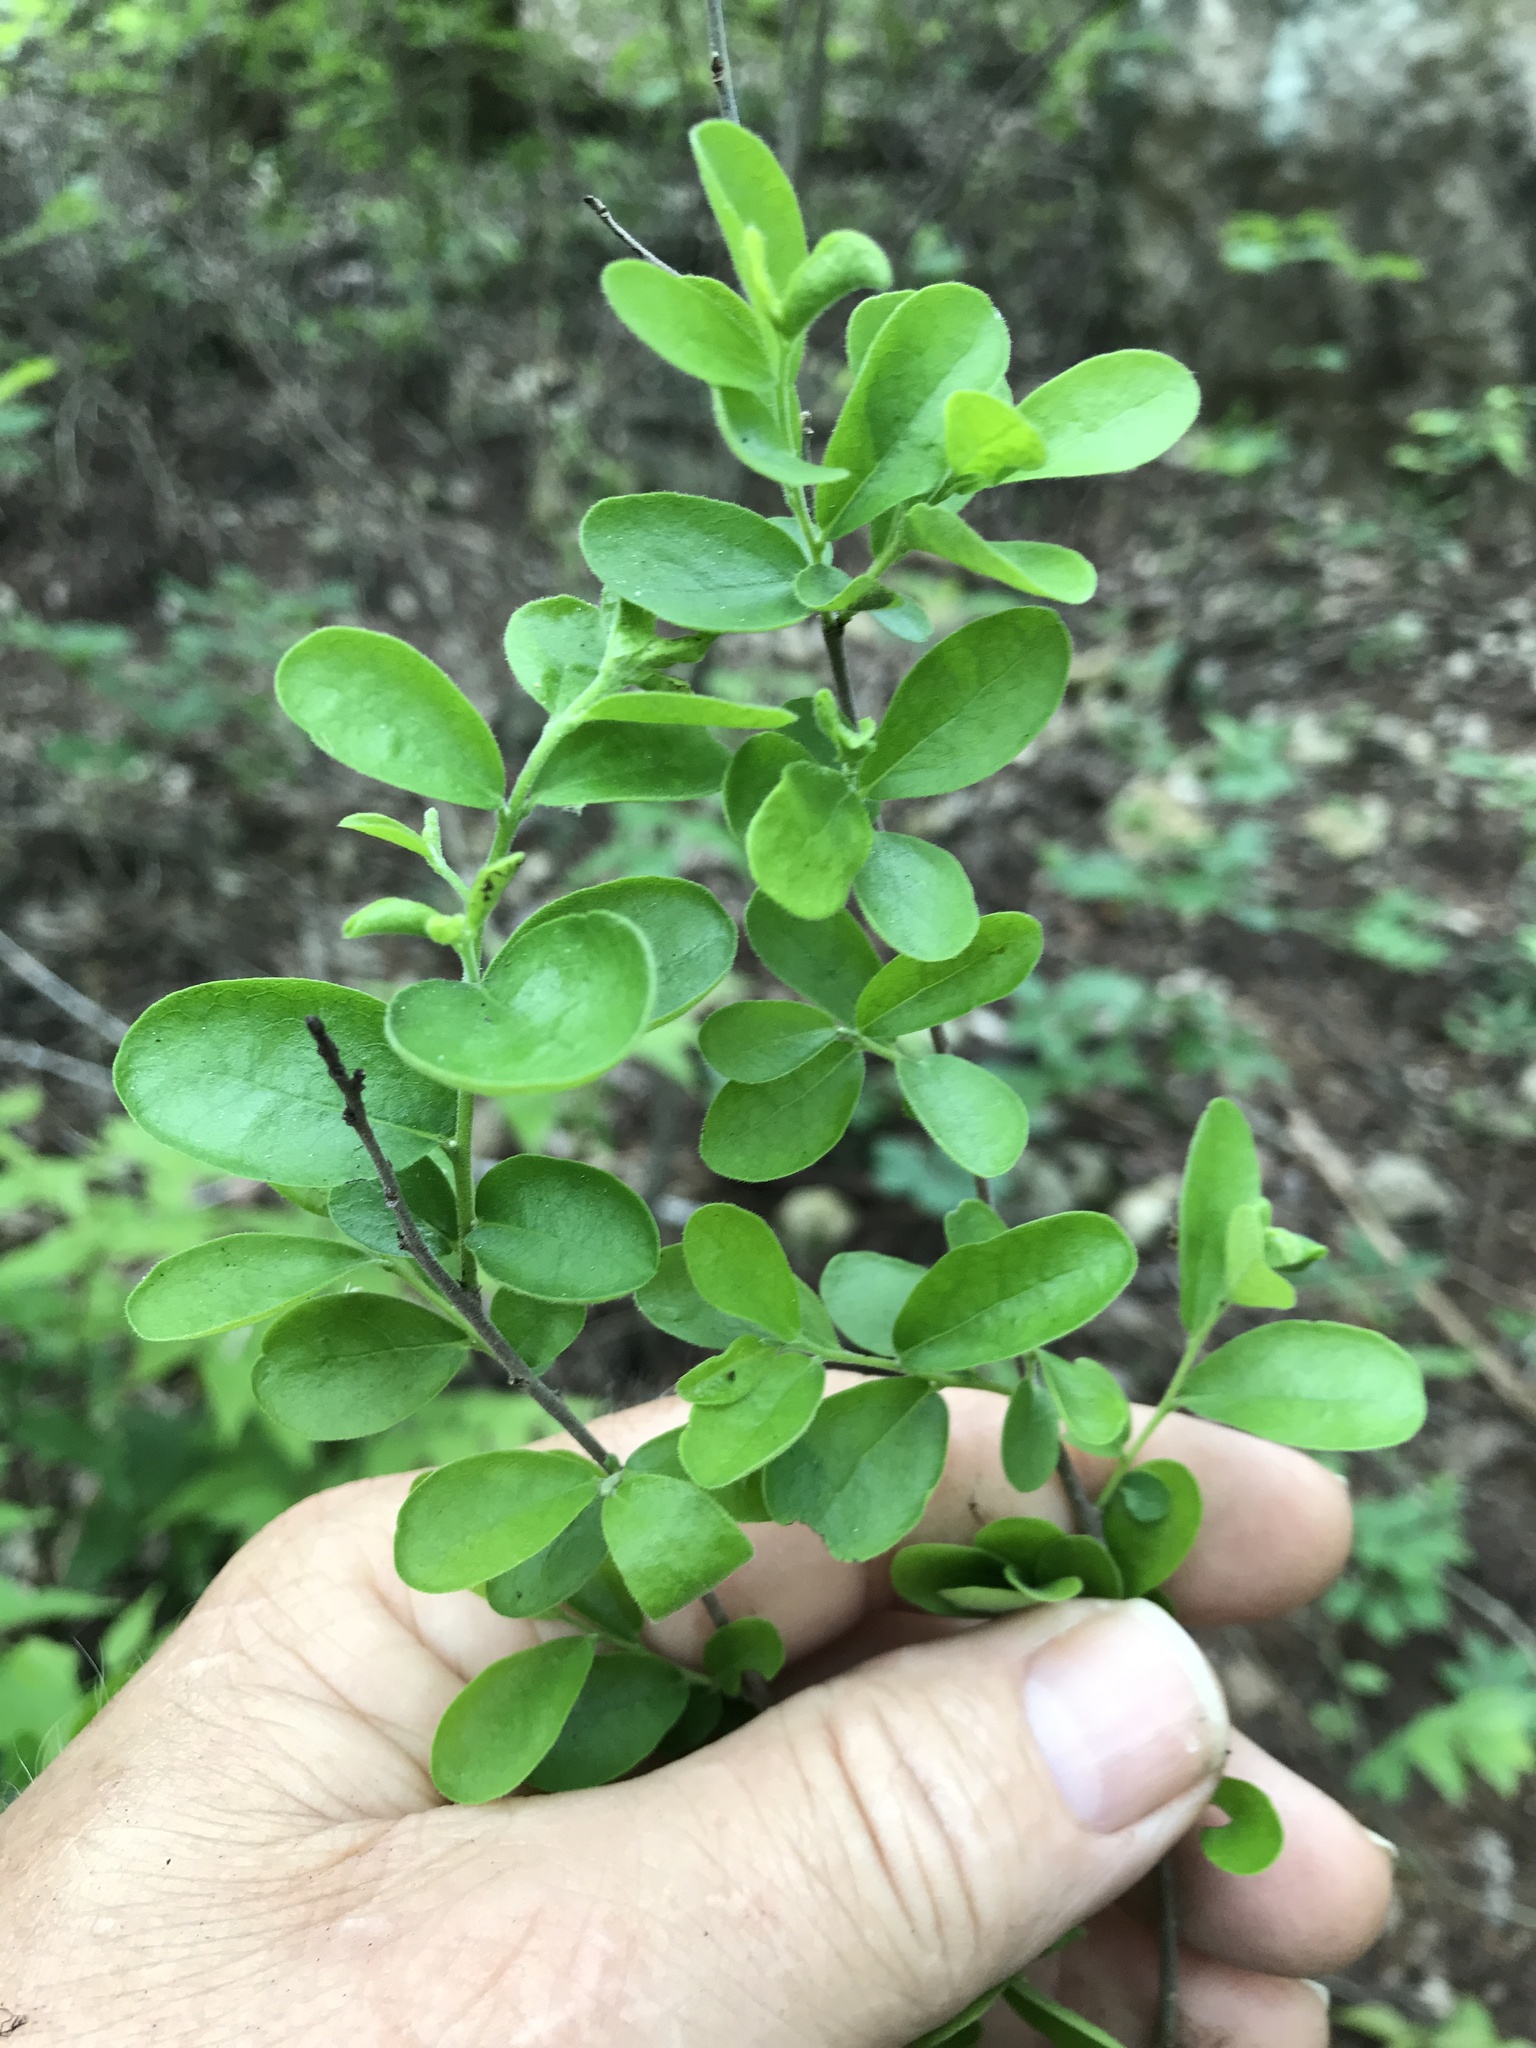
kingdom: Plantae
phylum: Tracheophyta
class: Magnoliopsida
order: Ericales
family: Ebenaceae
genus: Diospyros
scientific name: Diospyros texana
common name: Texas persimmon
